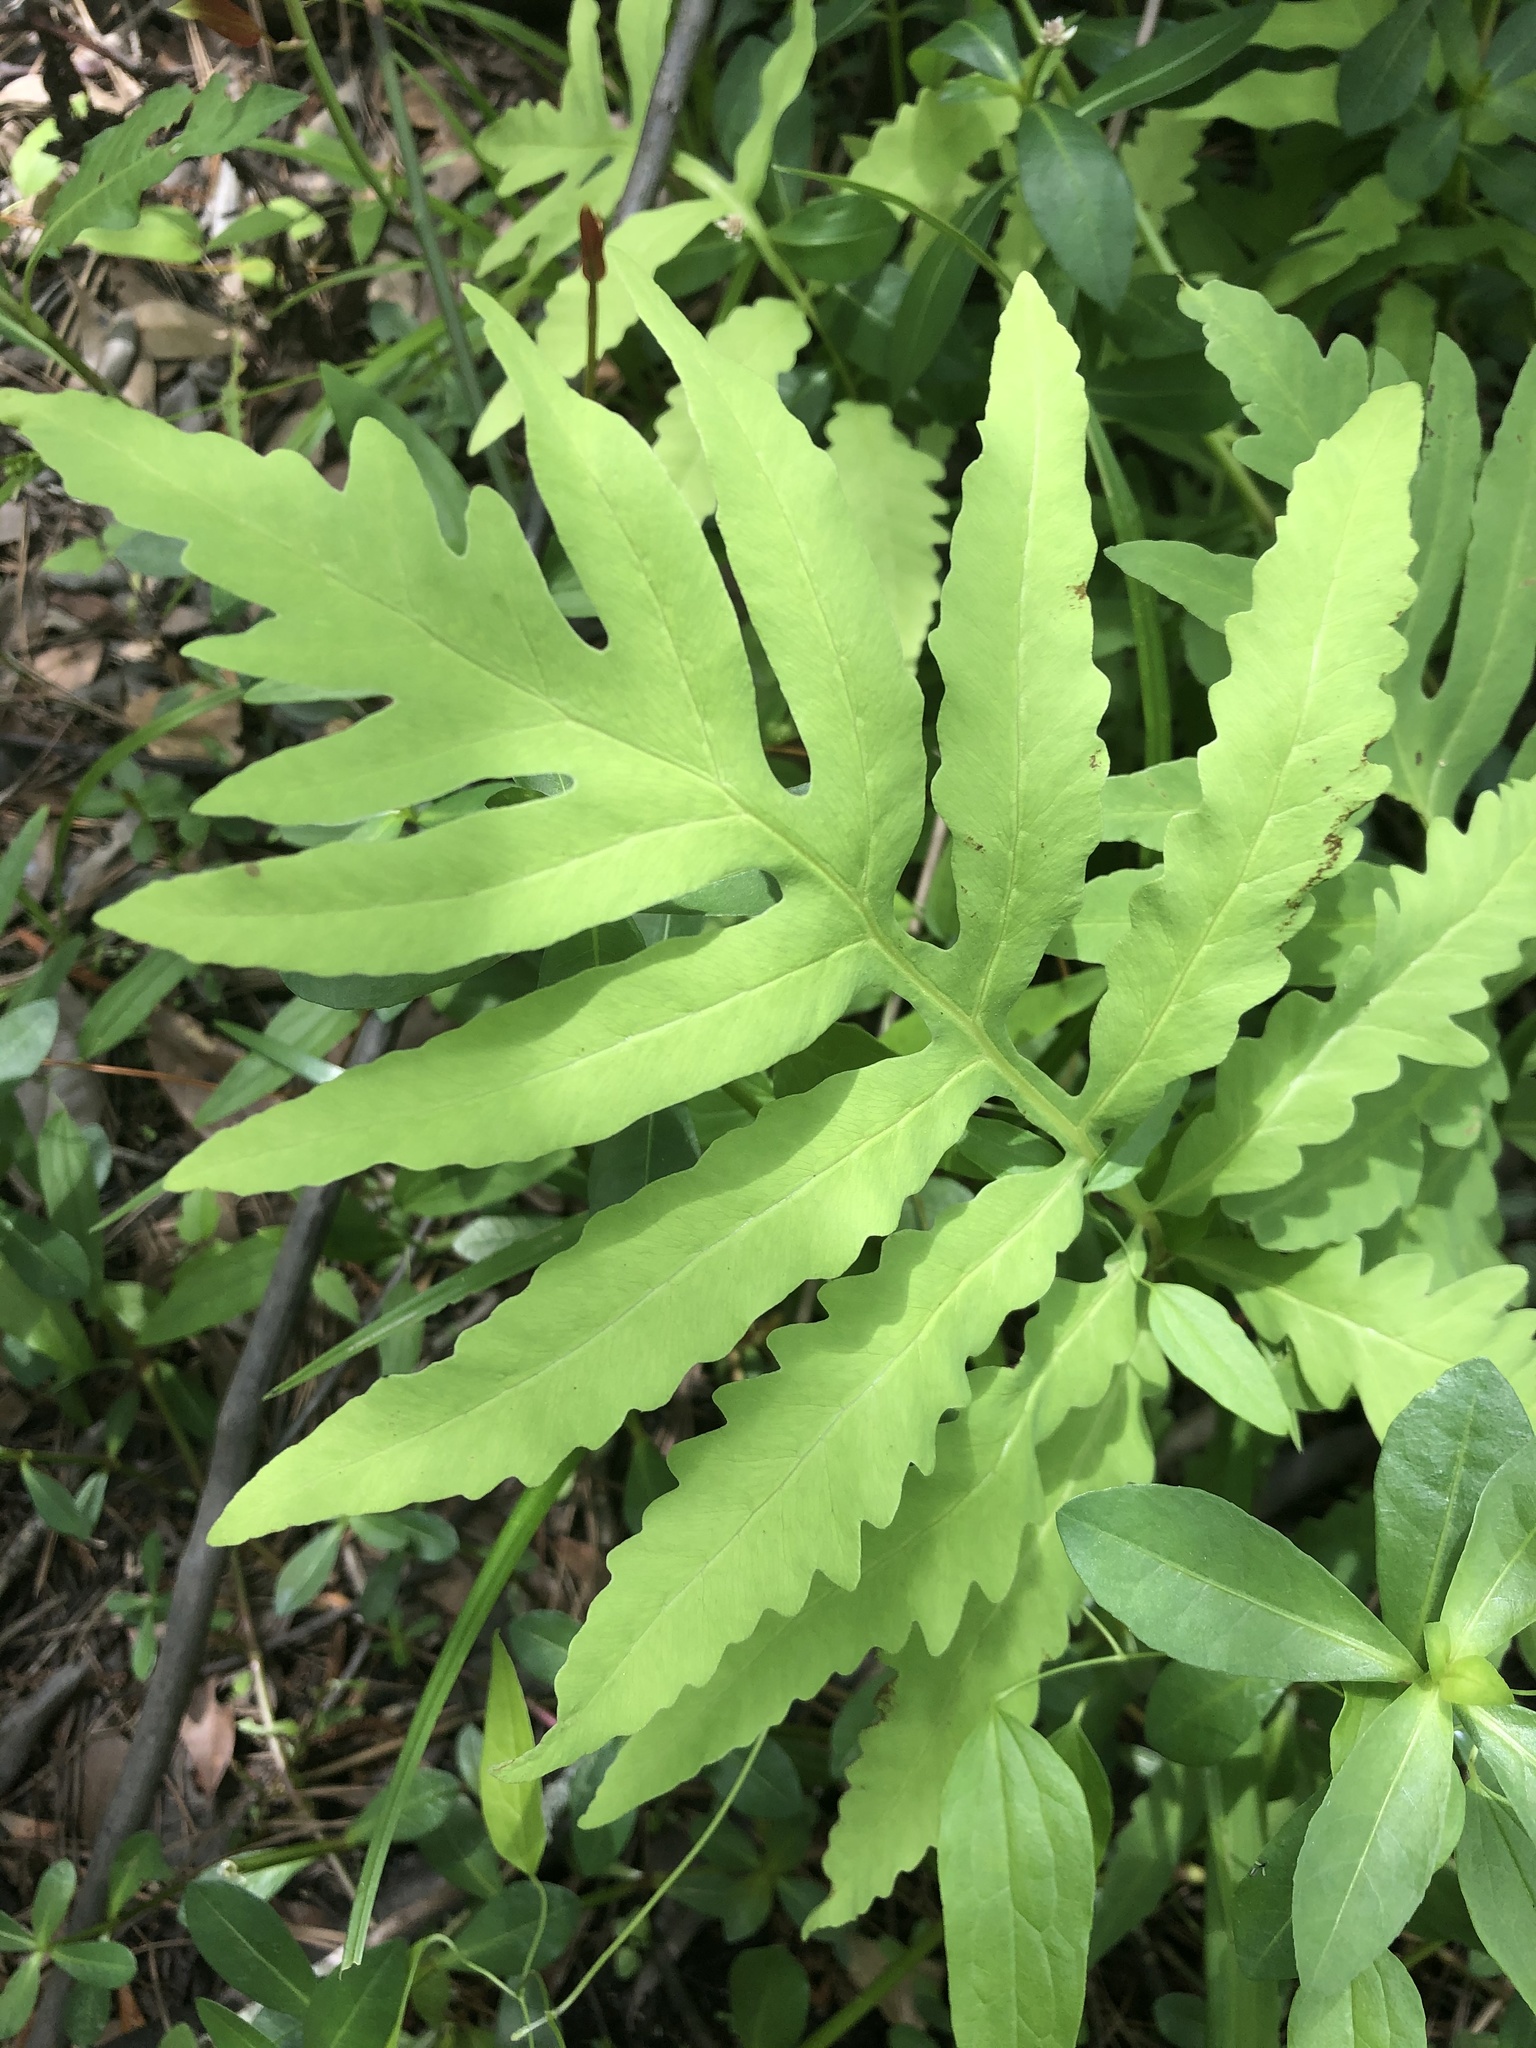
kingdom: Plantae
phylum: Tracheophyta
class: Polypodiopsida
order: Polypodiales
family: Onocleaceae
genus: Onoclea
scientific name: Onoclea sensibilis
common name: Sensitive fern
